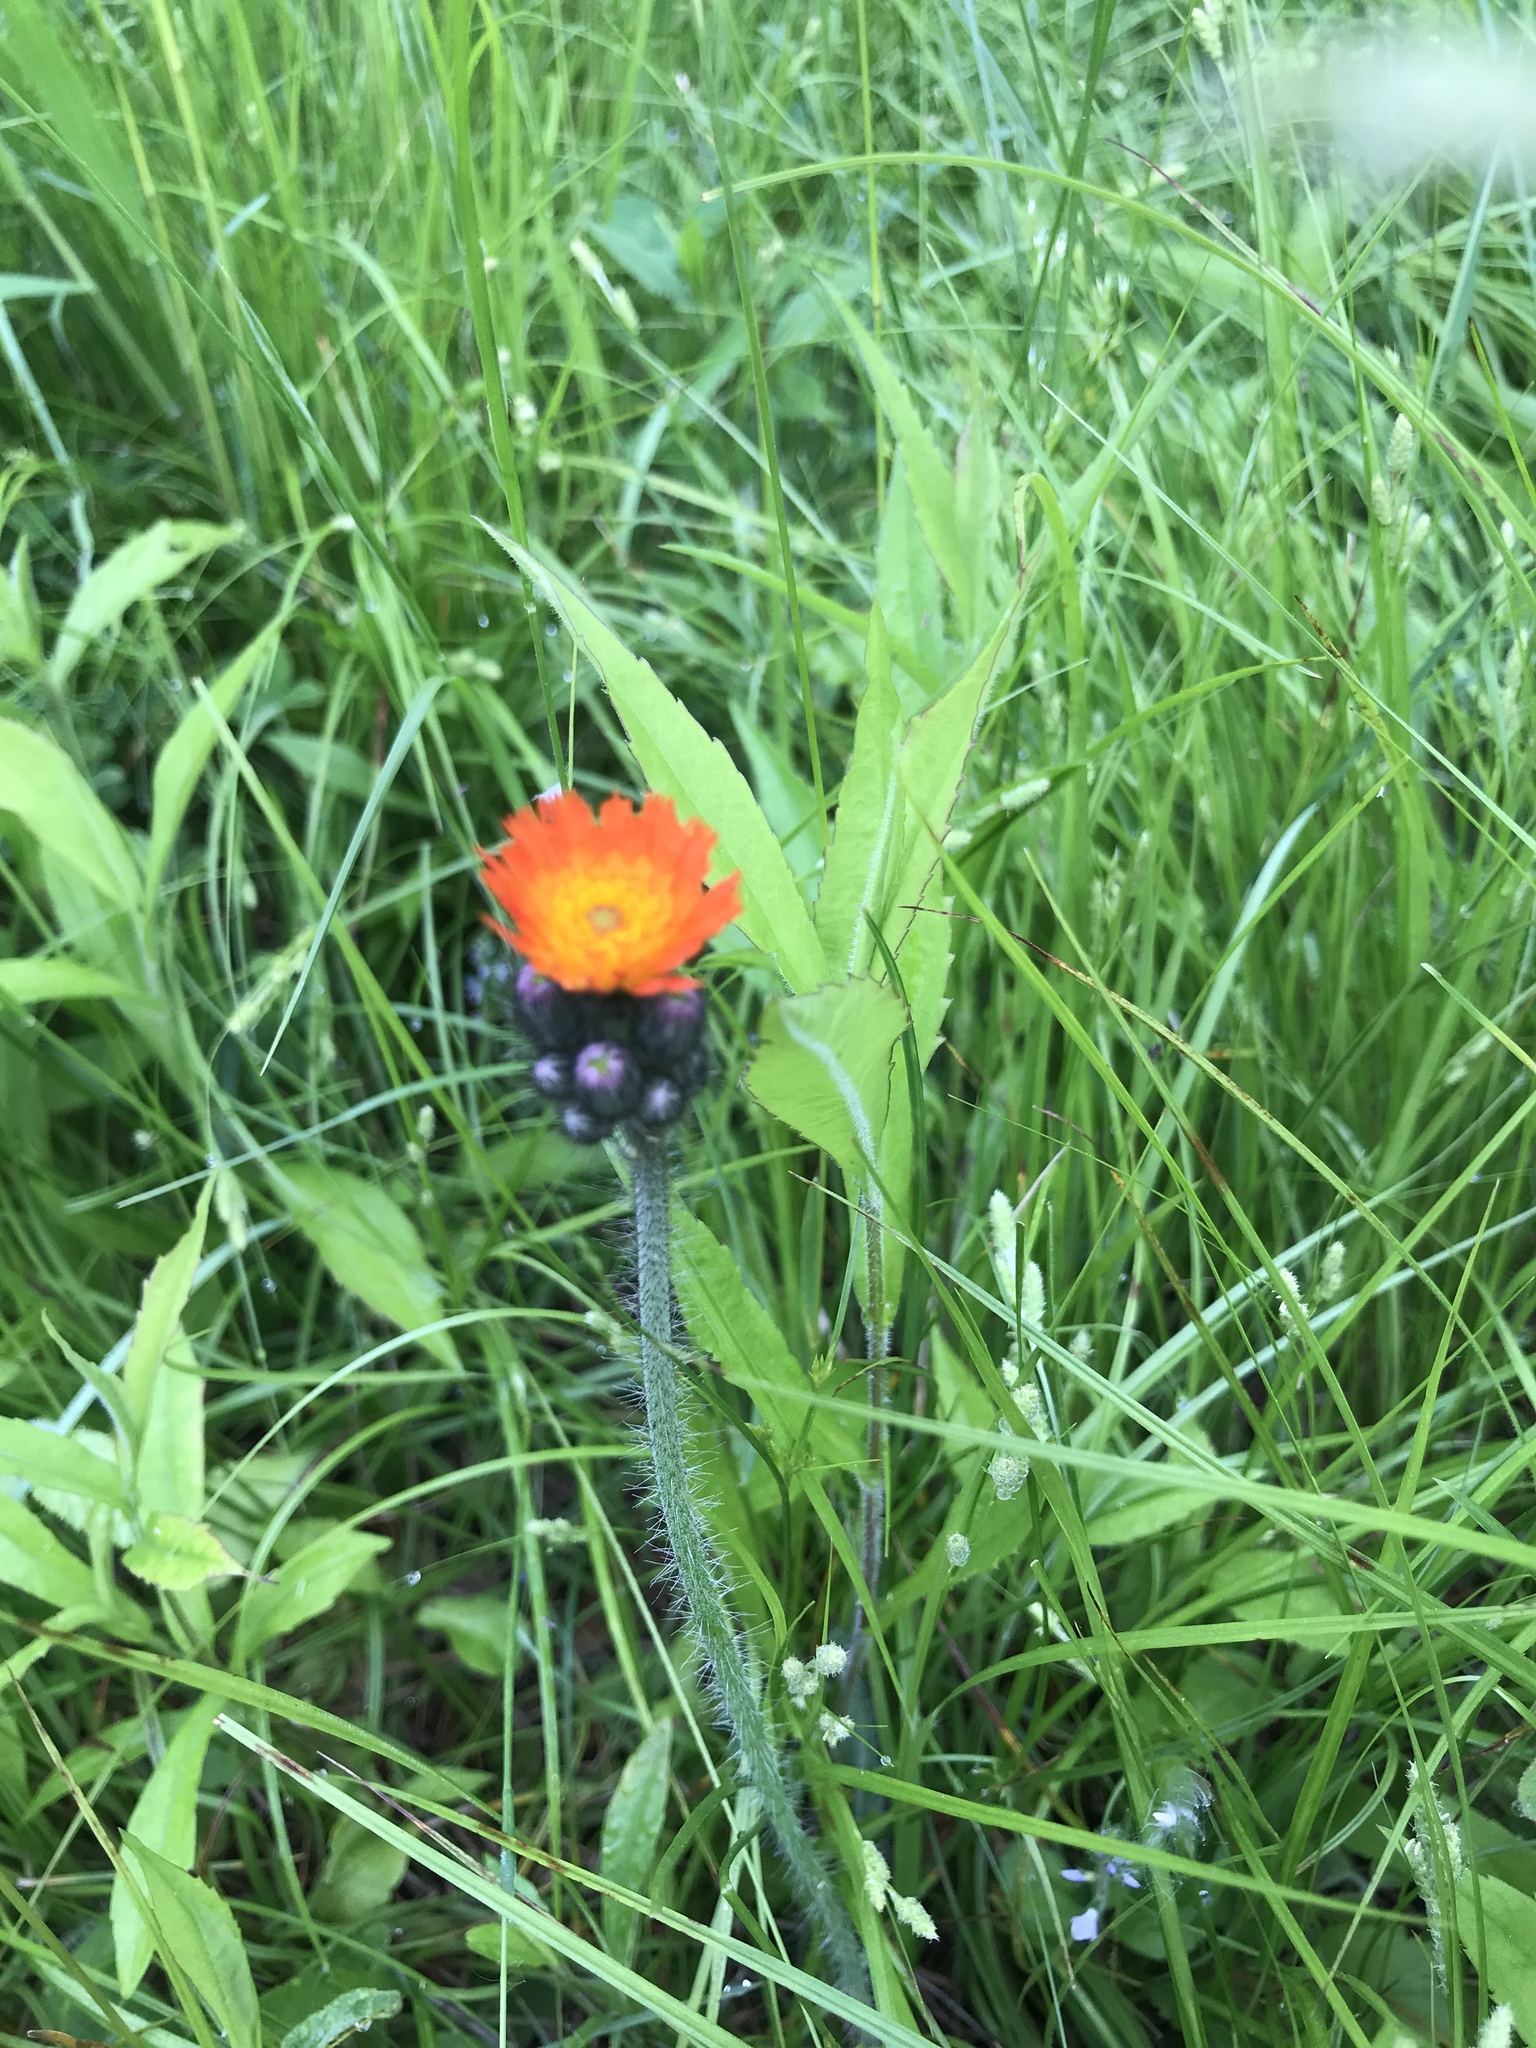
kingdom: Plantae
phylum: Tracheophyta
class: Magnoliopsida
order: Asterales
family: Asteraceae
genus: Pilosella
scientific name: Pilosella aurantiaca
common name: Fox-and-cubs
